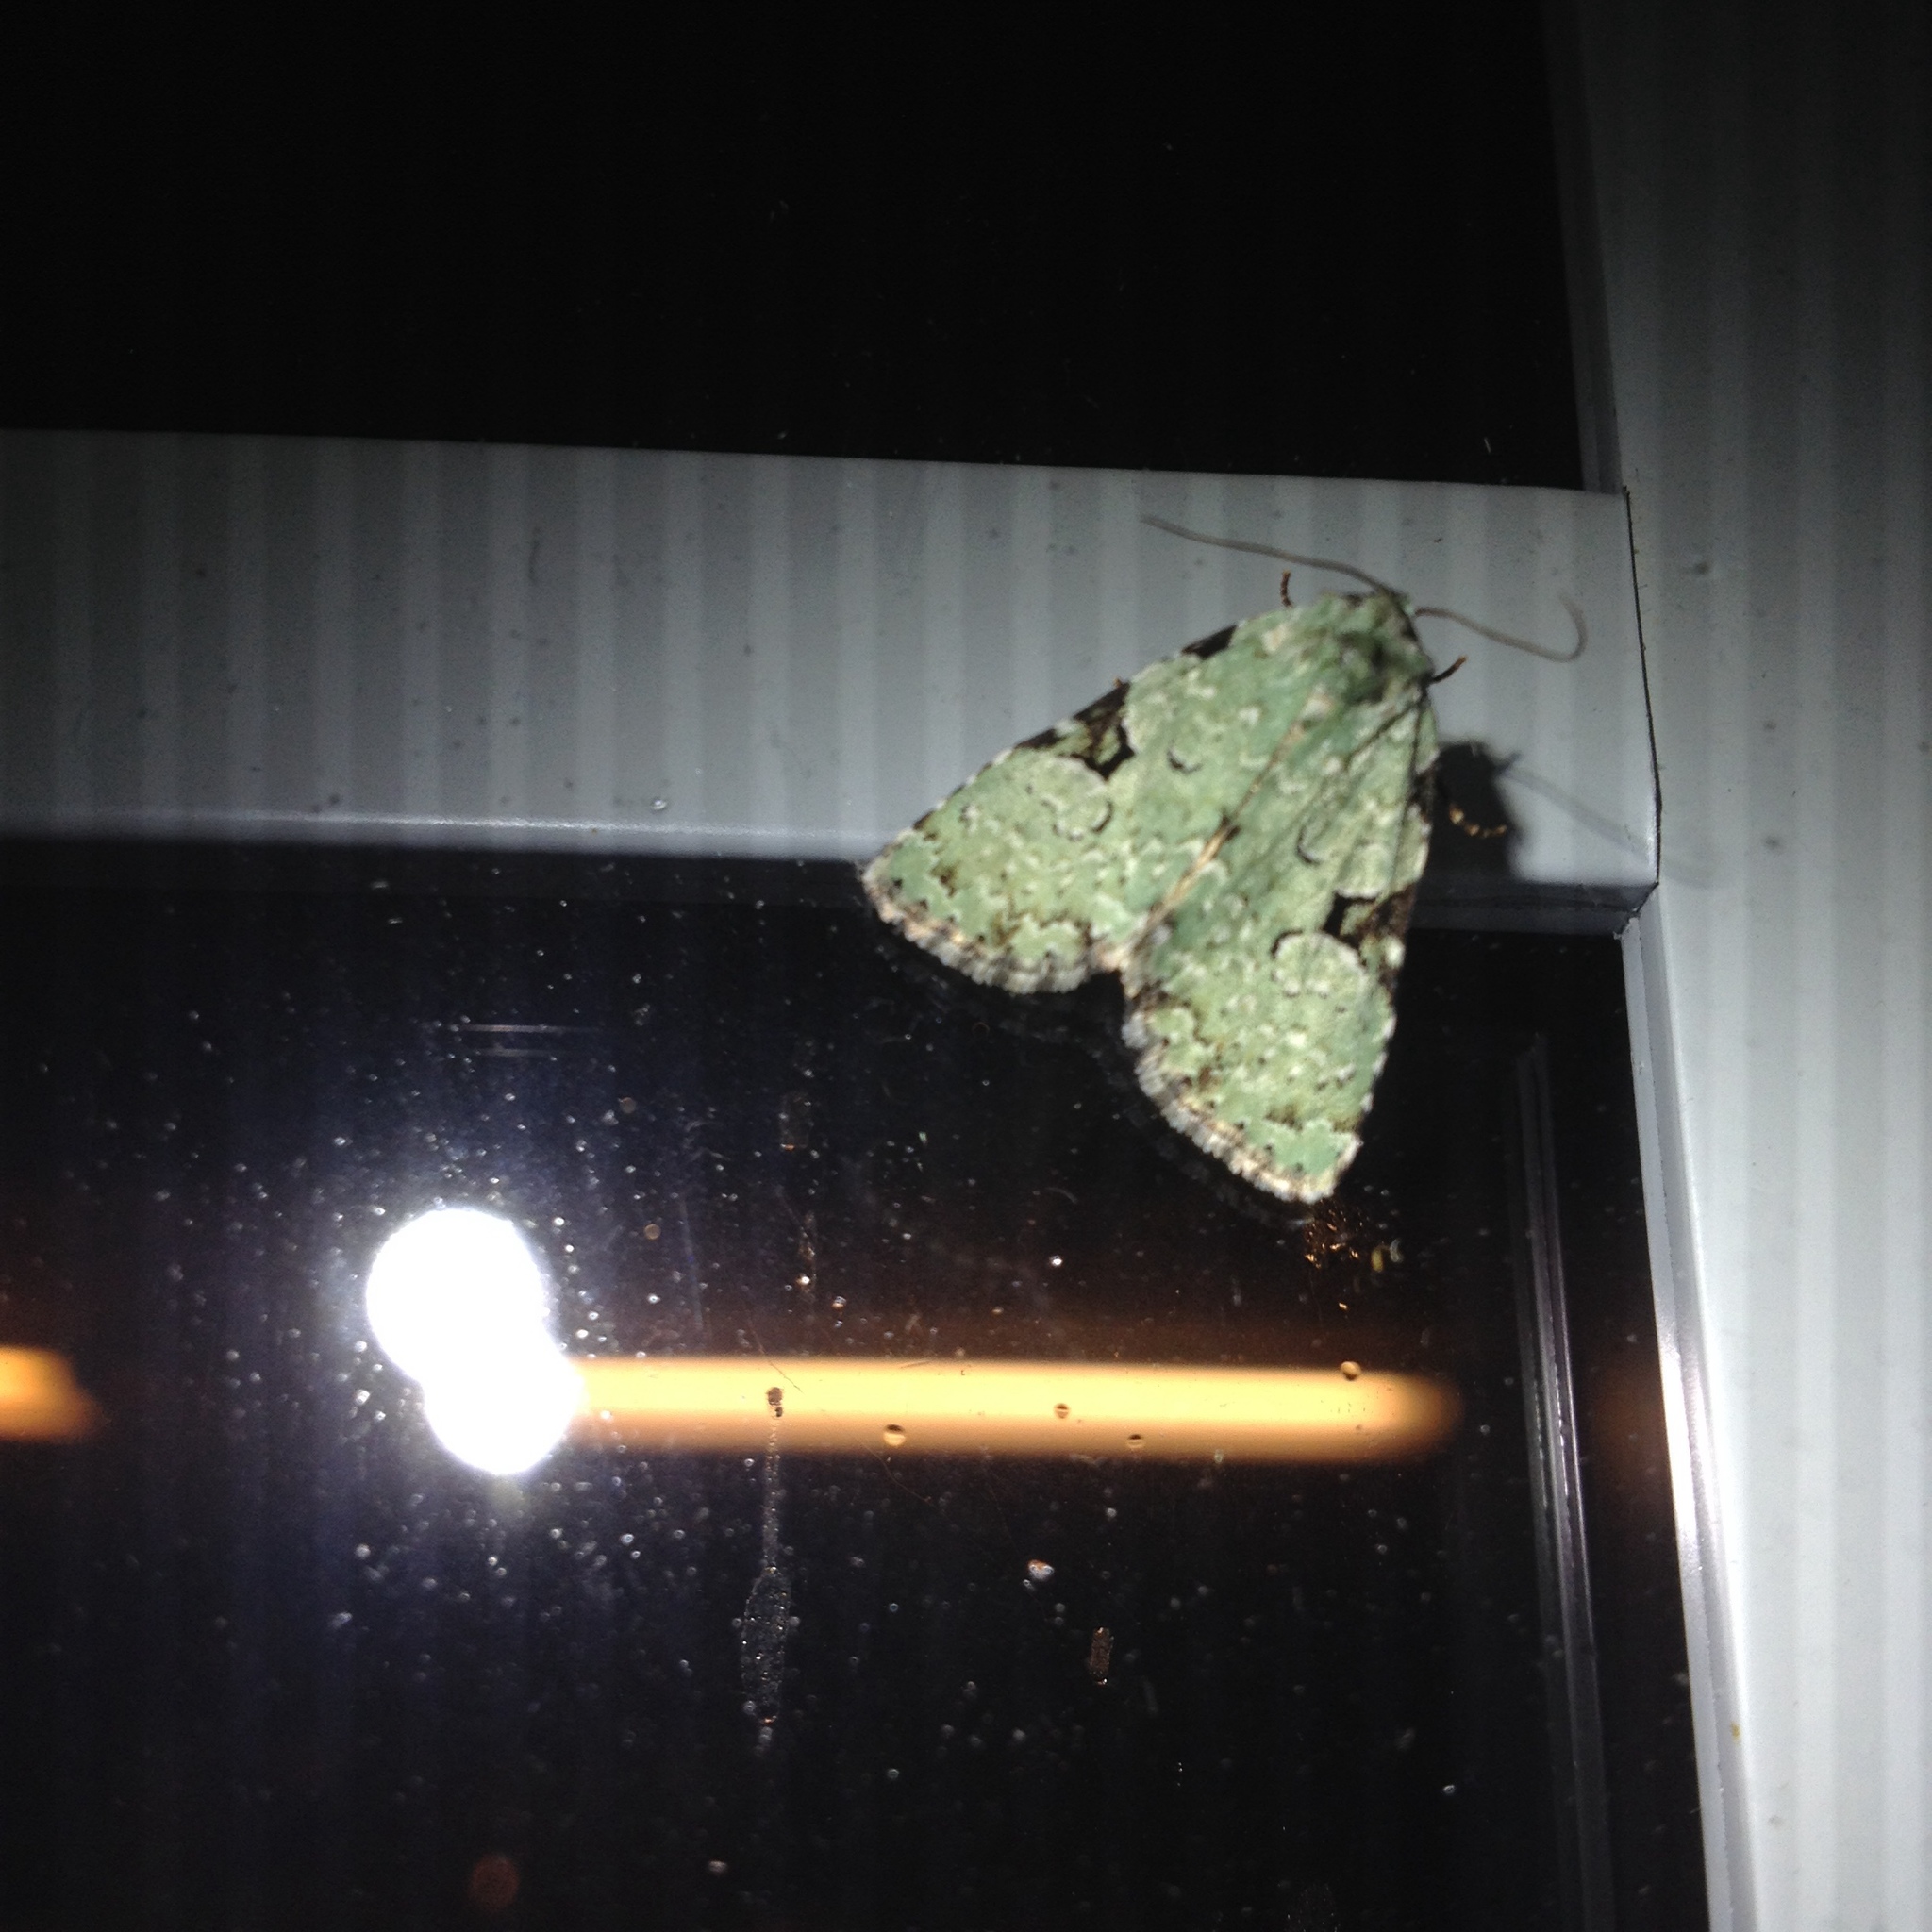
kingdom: Animalia
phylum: Arthropoda
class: Insecta
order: Lepidoptera
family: Noctuidae
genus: Leuconycta
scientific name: Leuconycta diphteroides
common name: Green leuconycta moth
